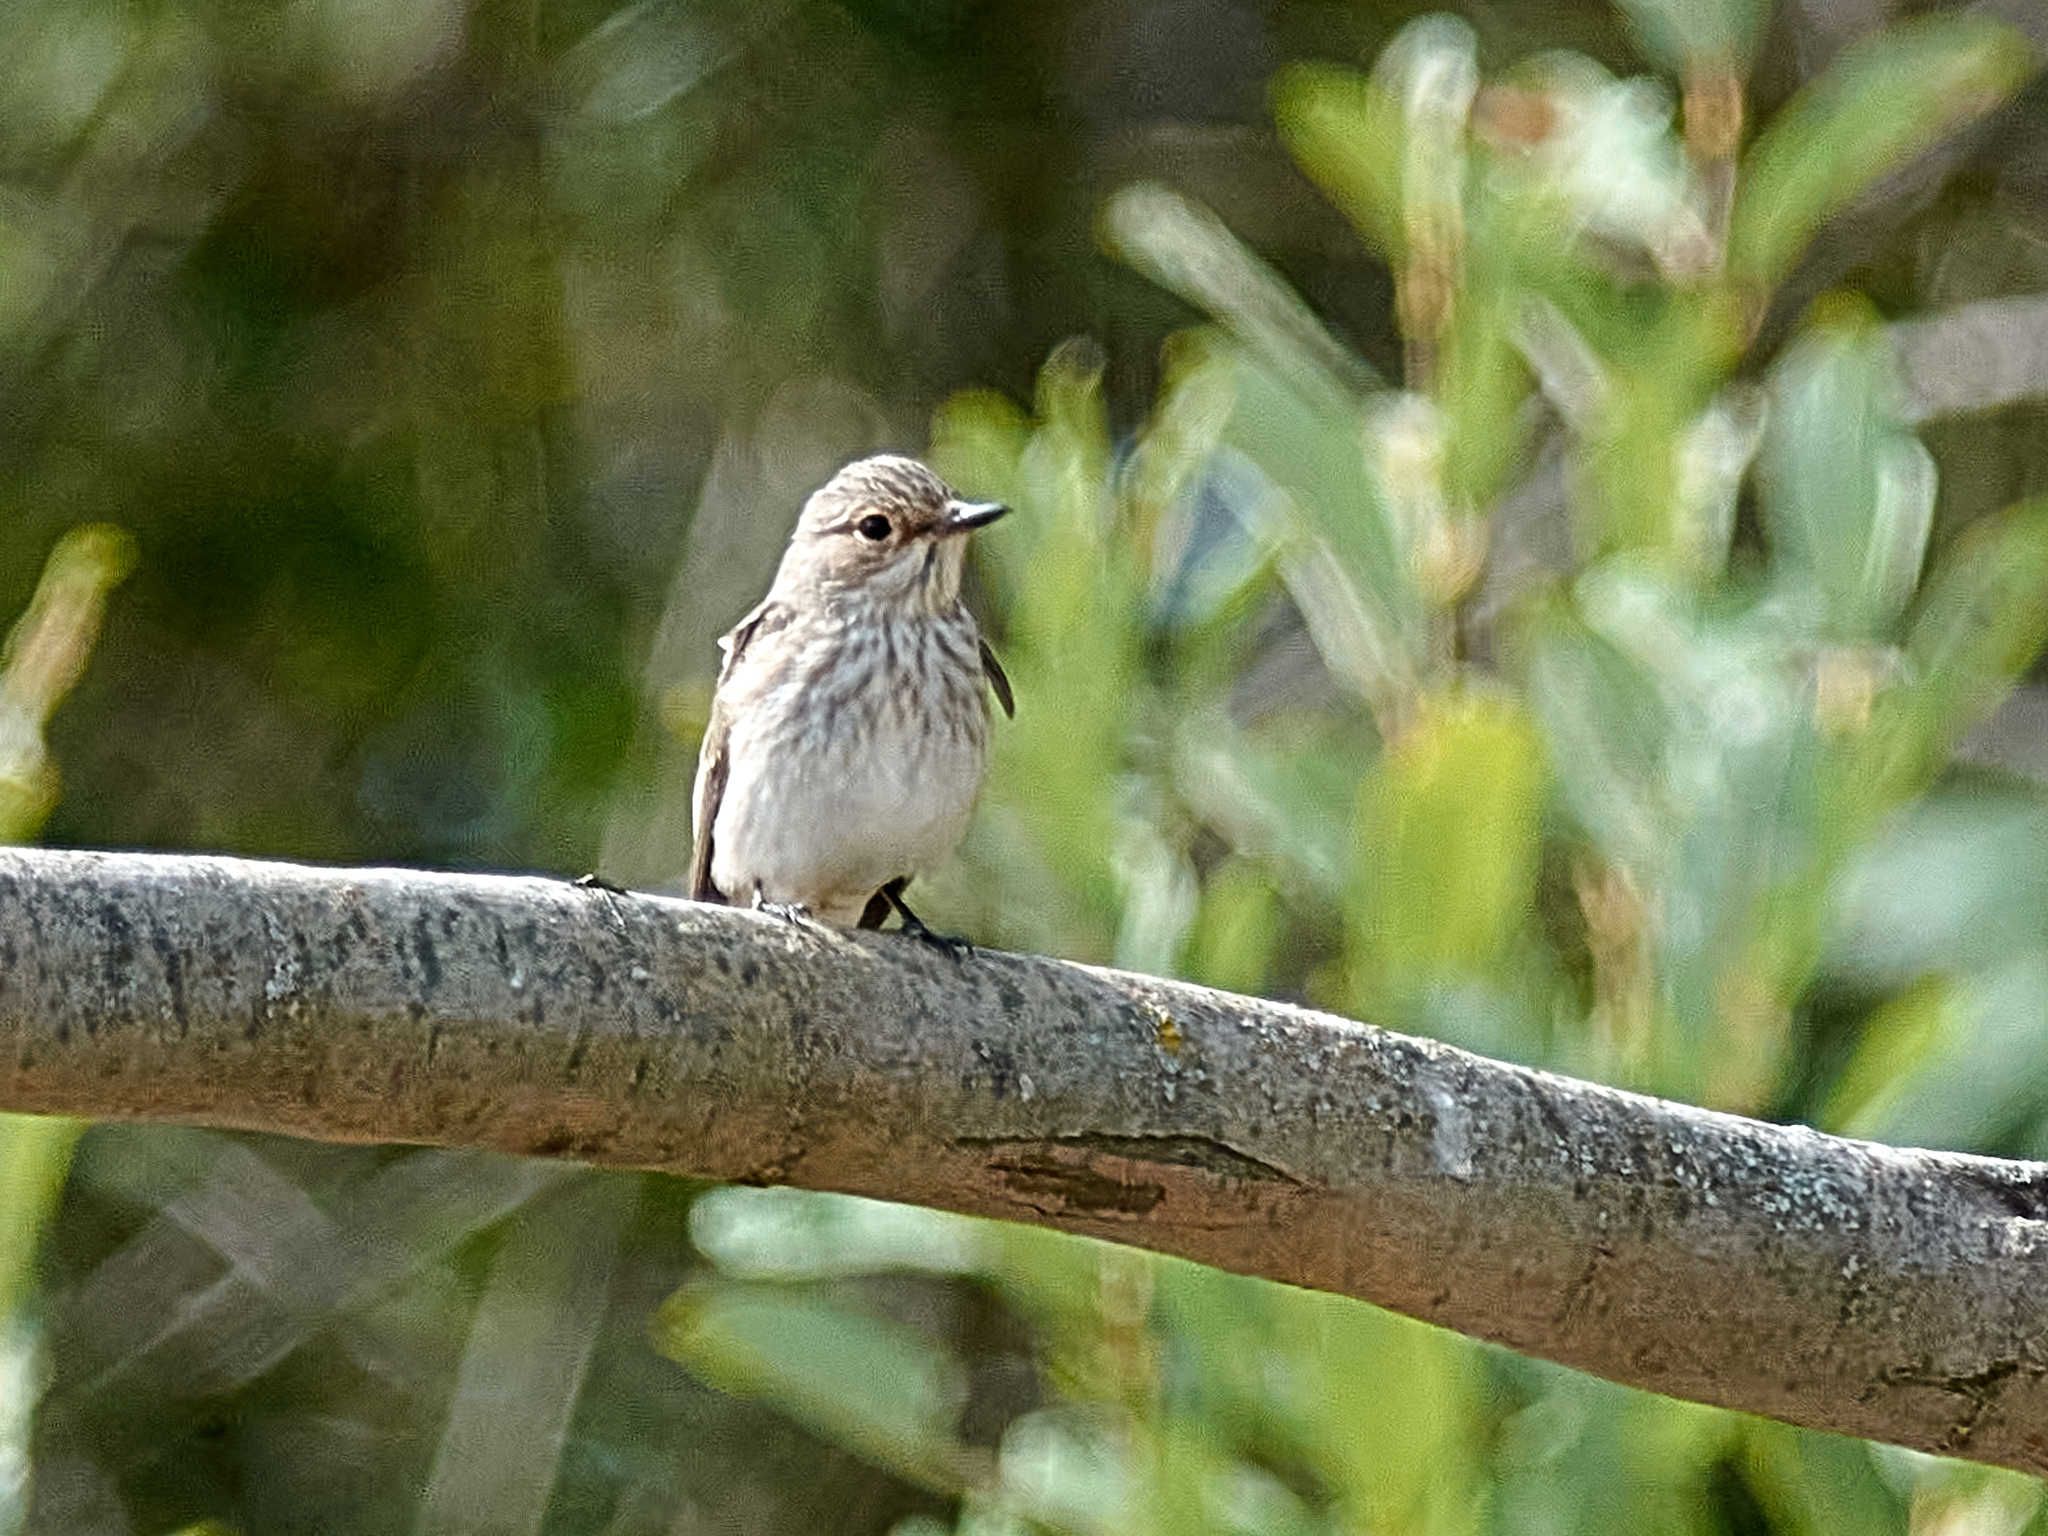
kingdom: Animalia
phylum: Chordata
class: Aves
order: Passeriformes
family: Muscicapidae
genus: Muscicapa
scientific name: Muscicapa striata
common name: Spotted flycatcher
